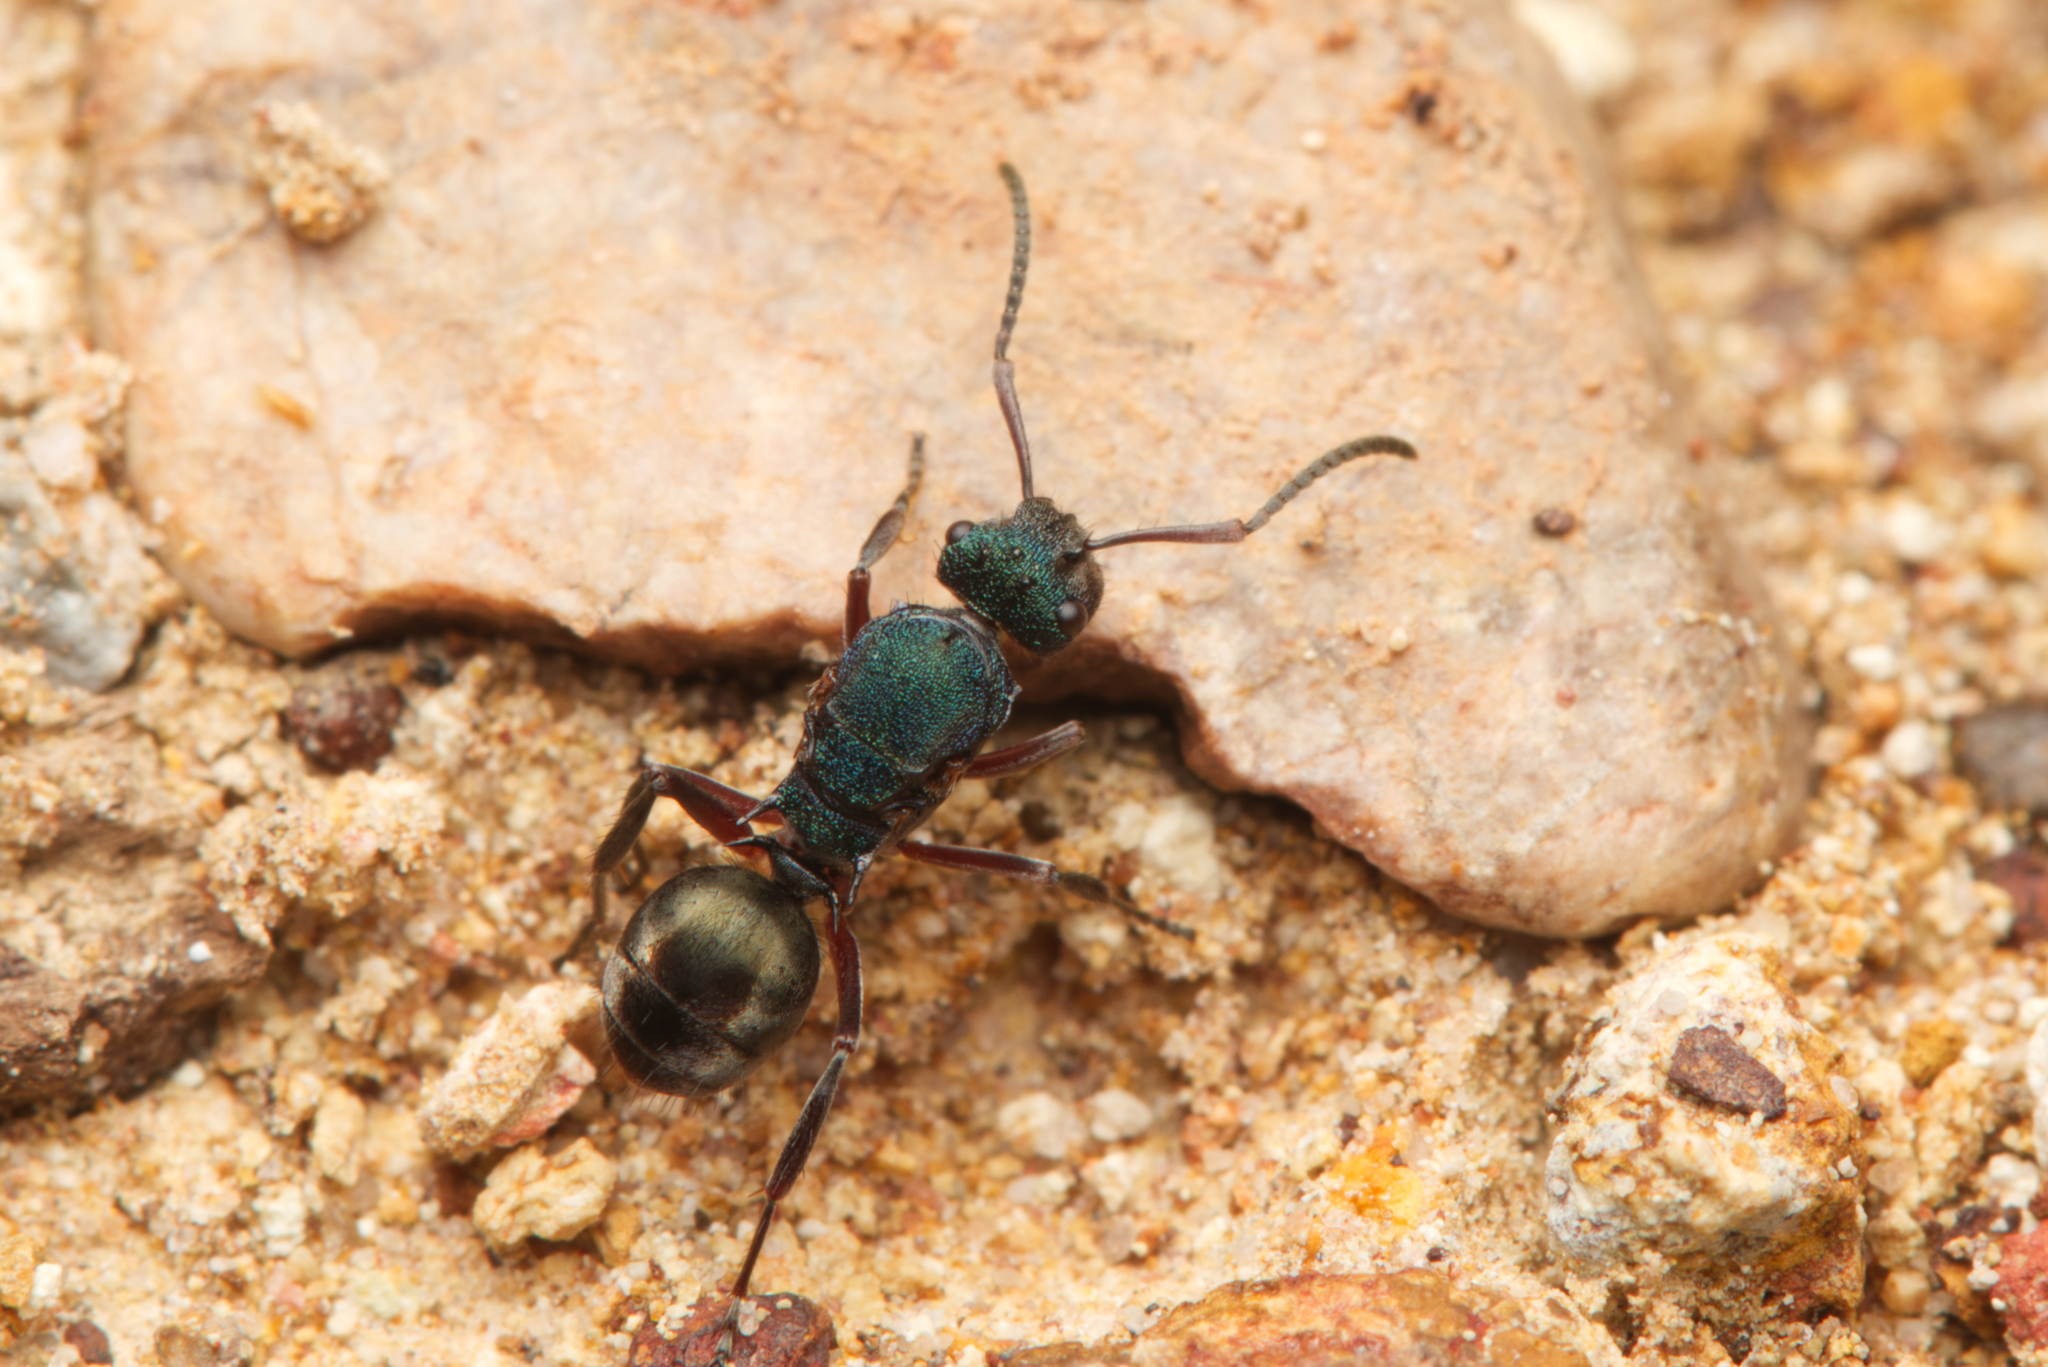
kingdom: Animalia
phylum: Arthropoda
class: Insecta
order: Hymenoptera
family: Formicidae
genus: Polyrhachis
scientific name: Polyrhachis hookeri
